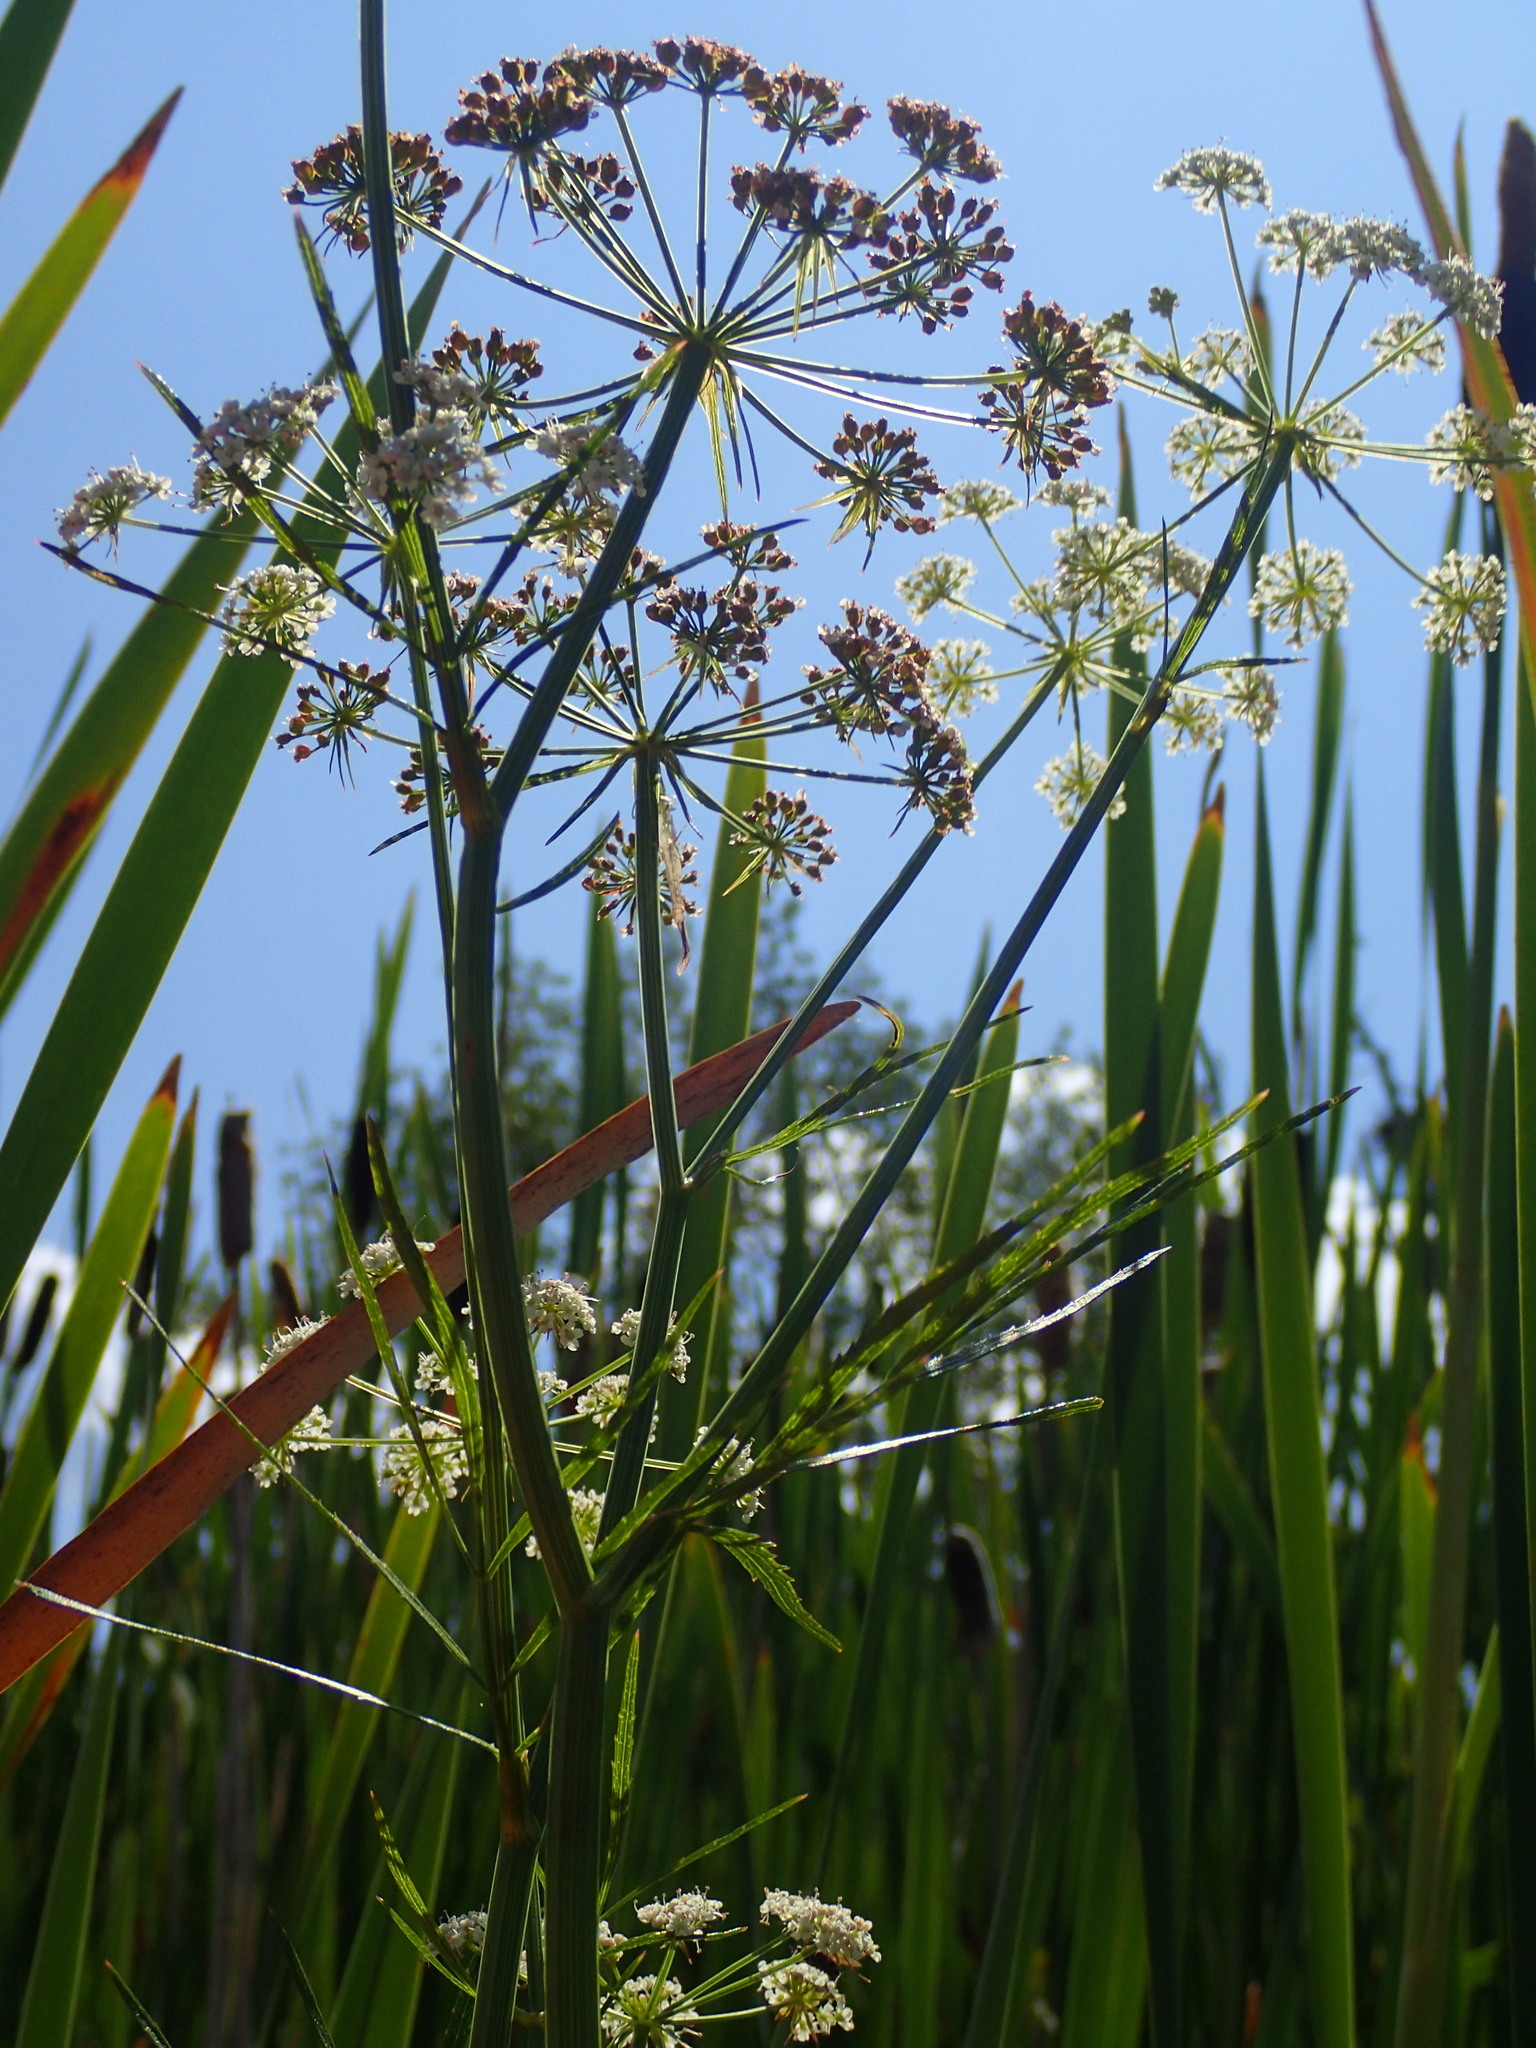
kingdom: Plantae
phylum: Tracheophyta
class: Magnoliopsida
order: Apiales
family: Apiaceae
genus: Sium
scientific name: Sium suave
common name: Hemlock water-parsnip
